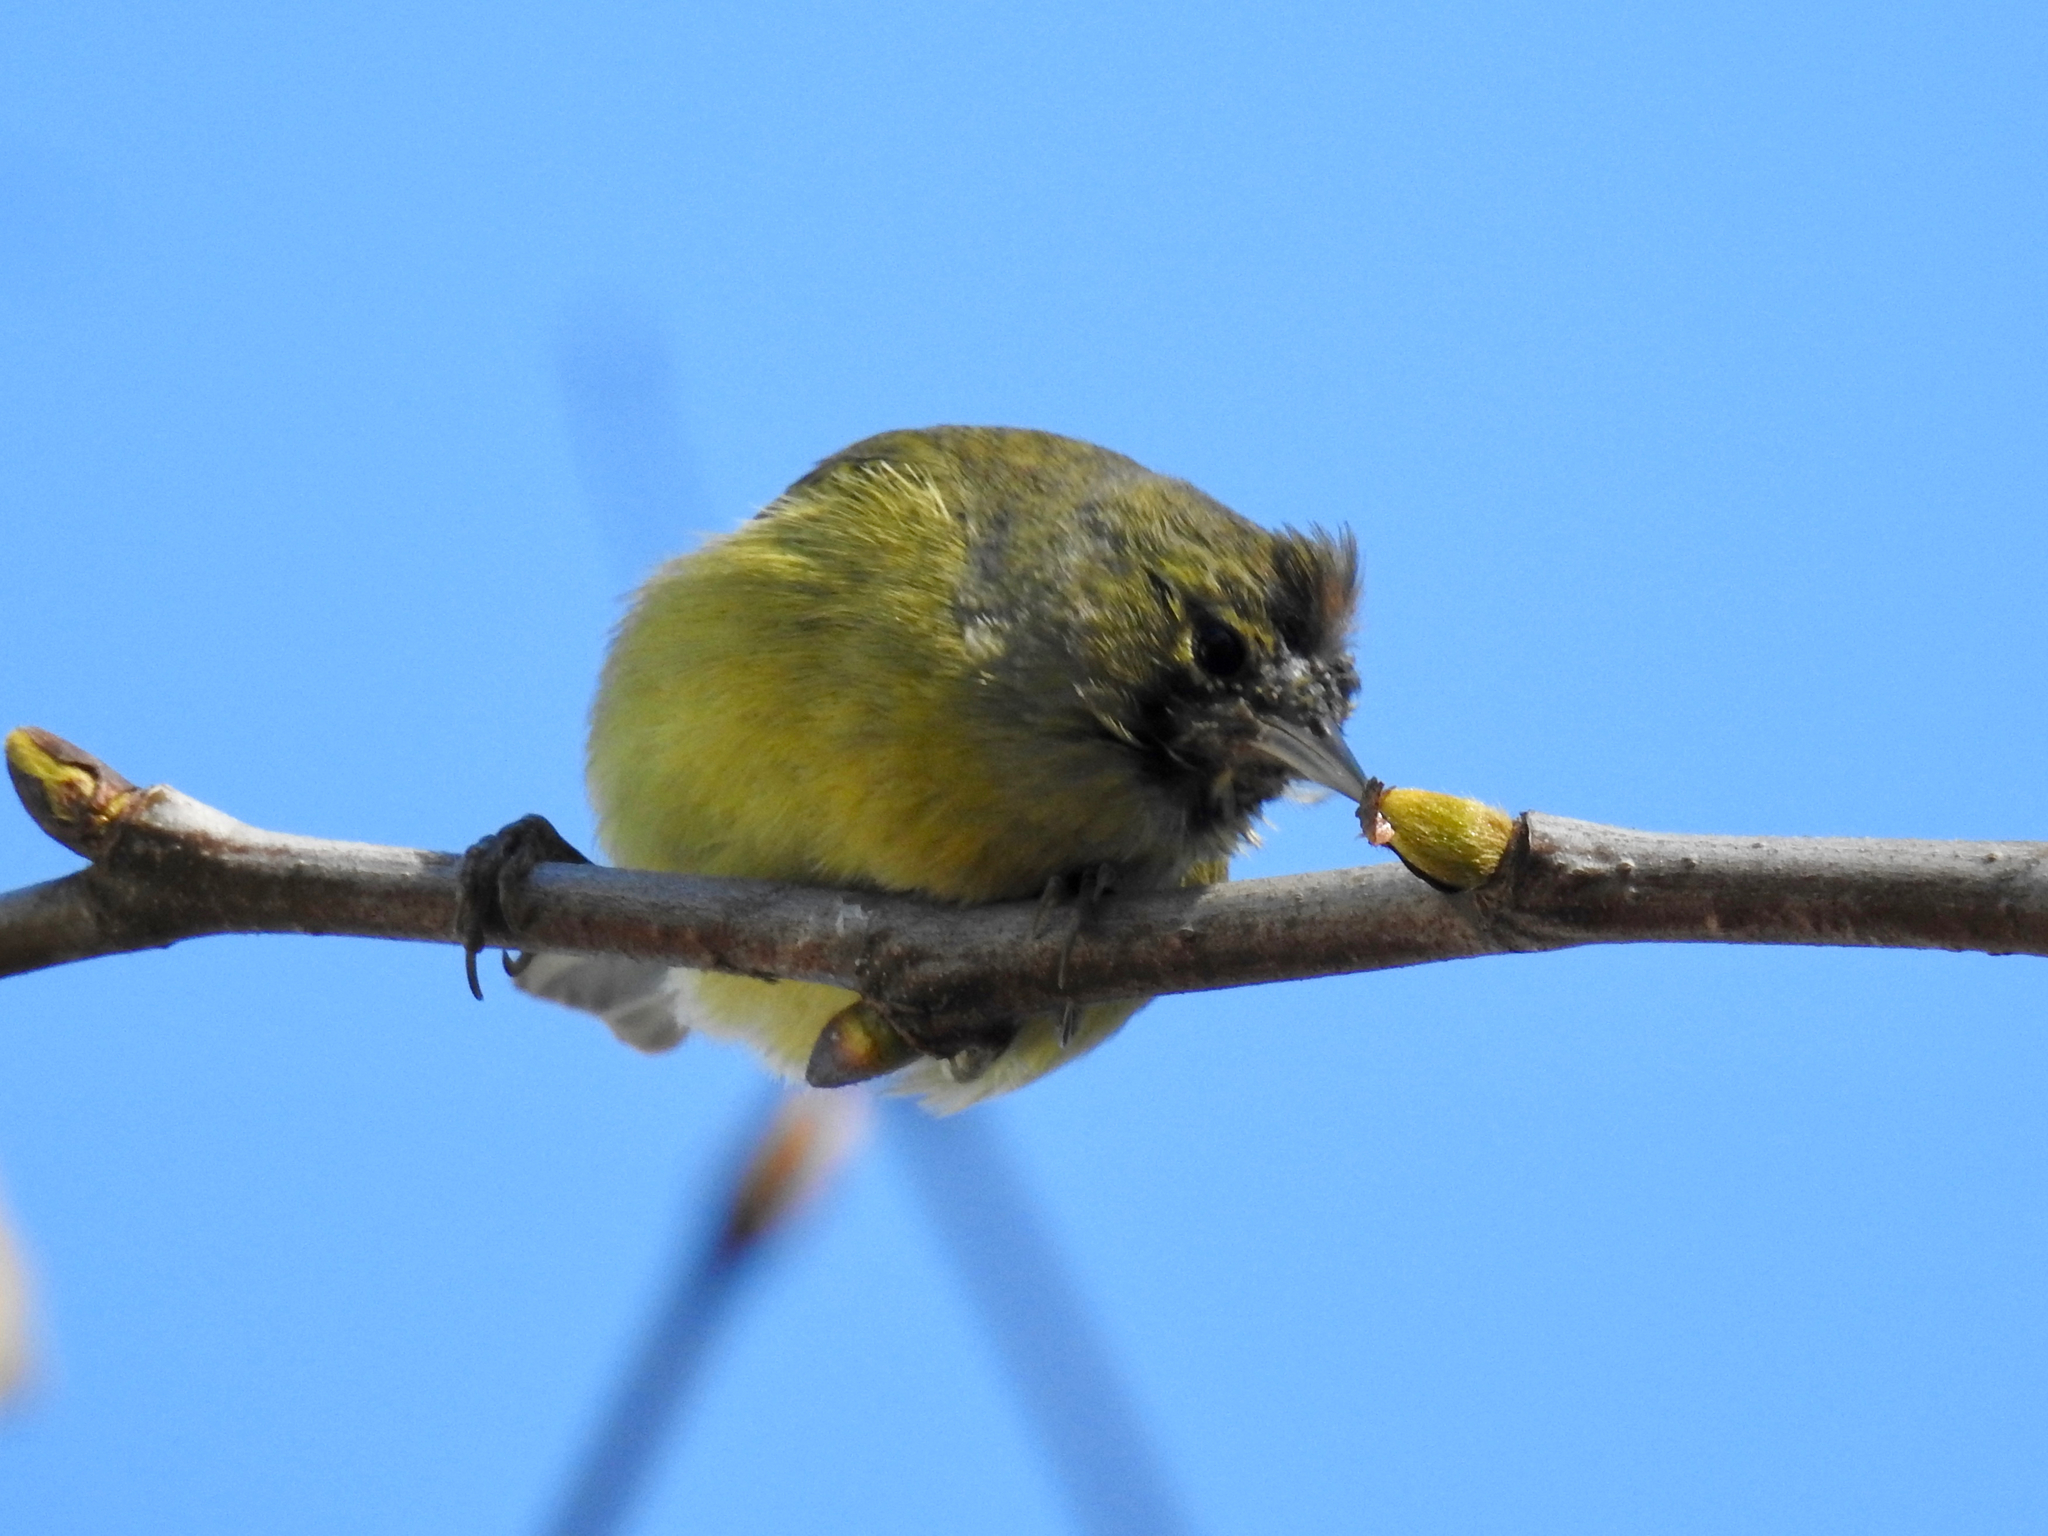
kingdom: Animalia
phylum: Chordata
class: Aves
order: Passeriformes
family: Parulidae
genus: Leiothlypis
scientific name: Leiothlypis celata
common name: Orange-crowned warbler
